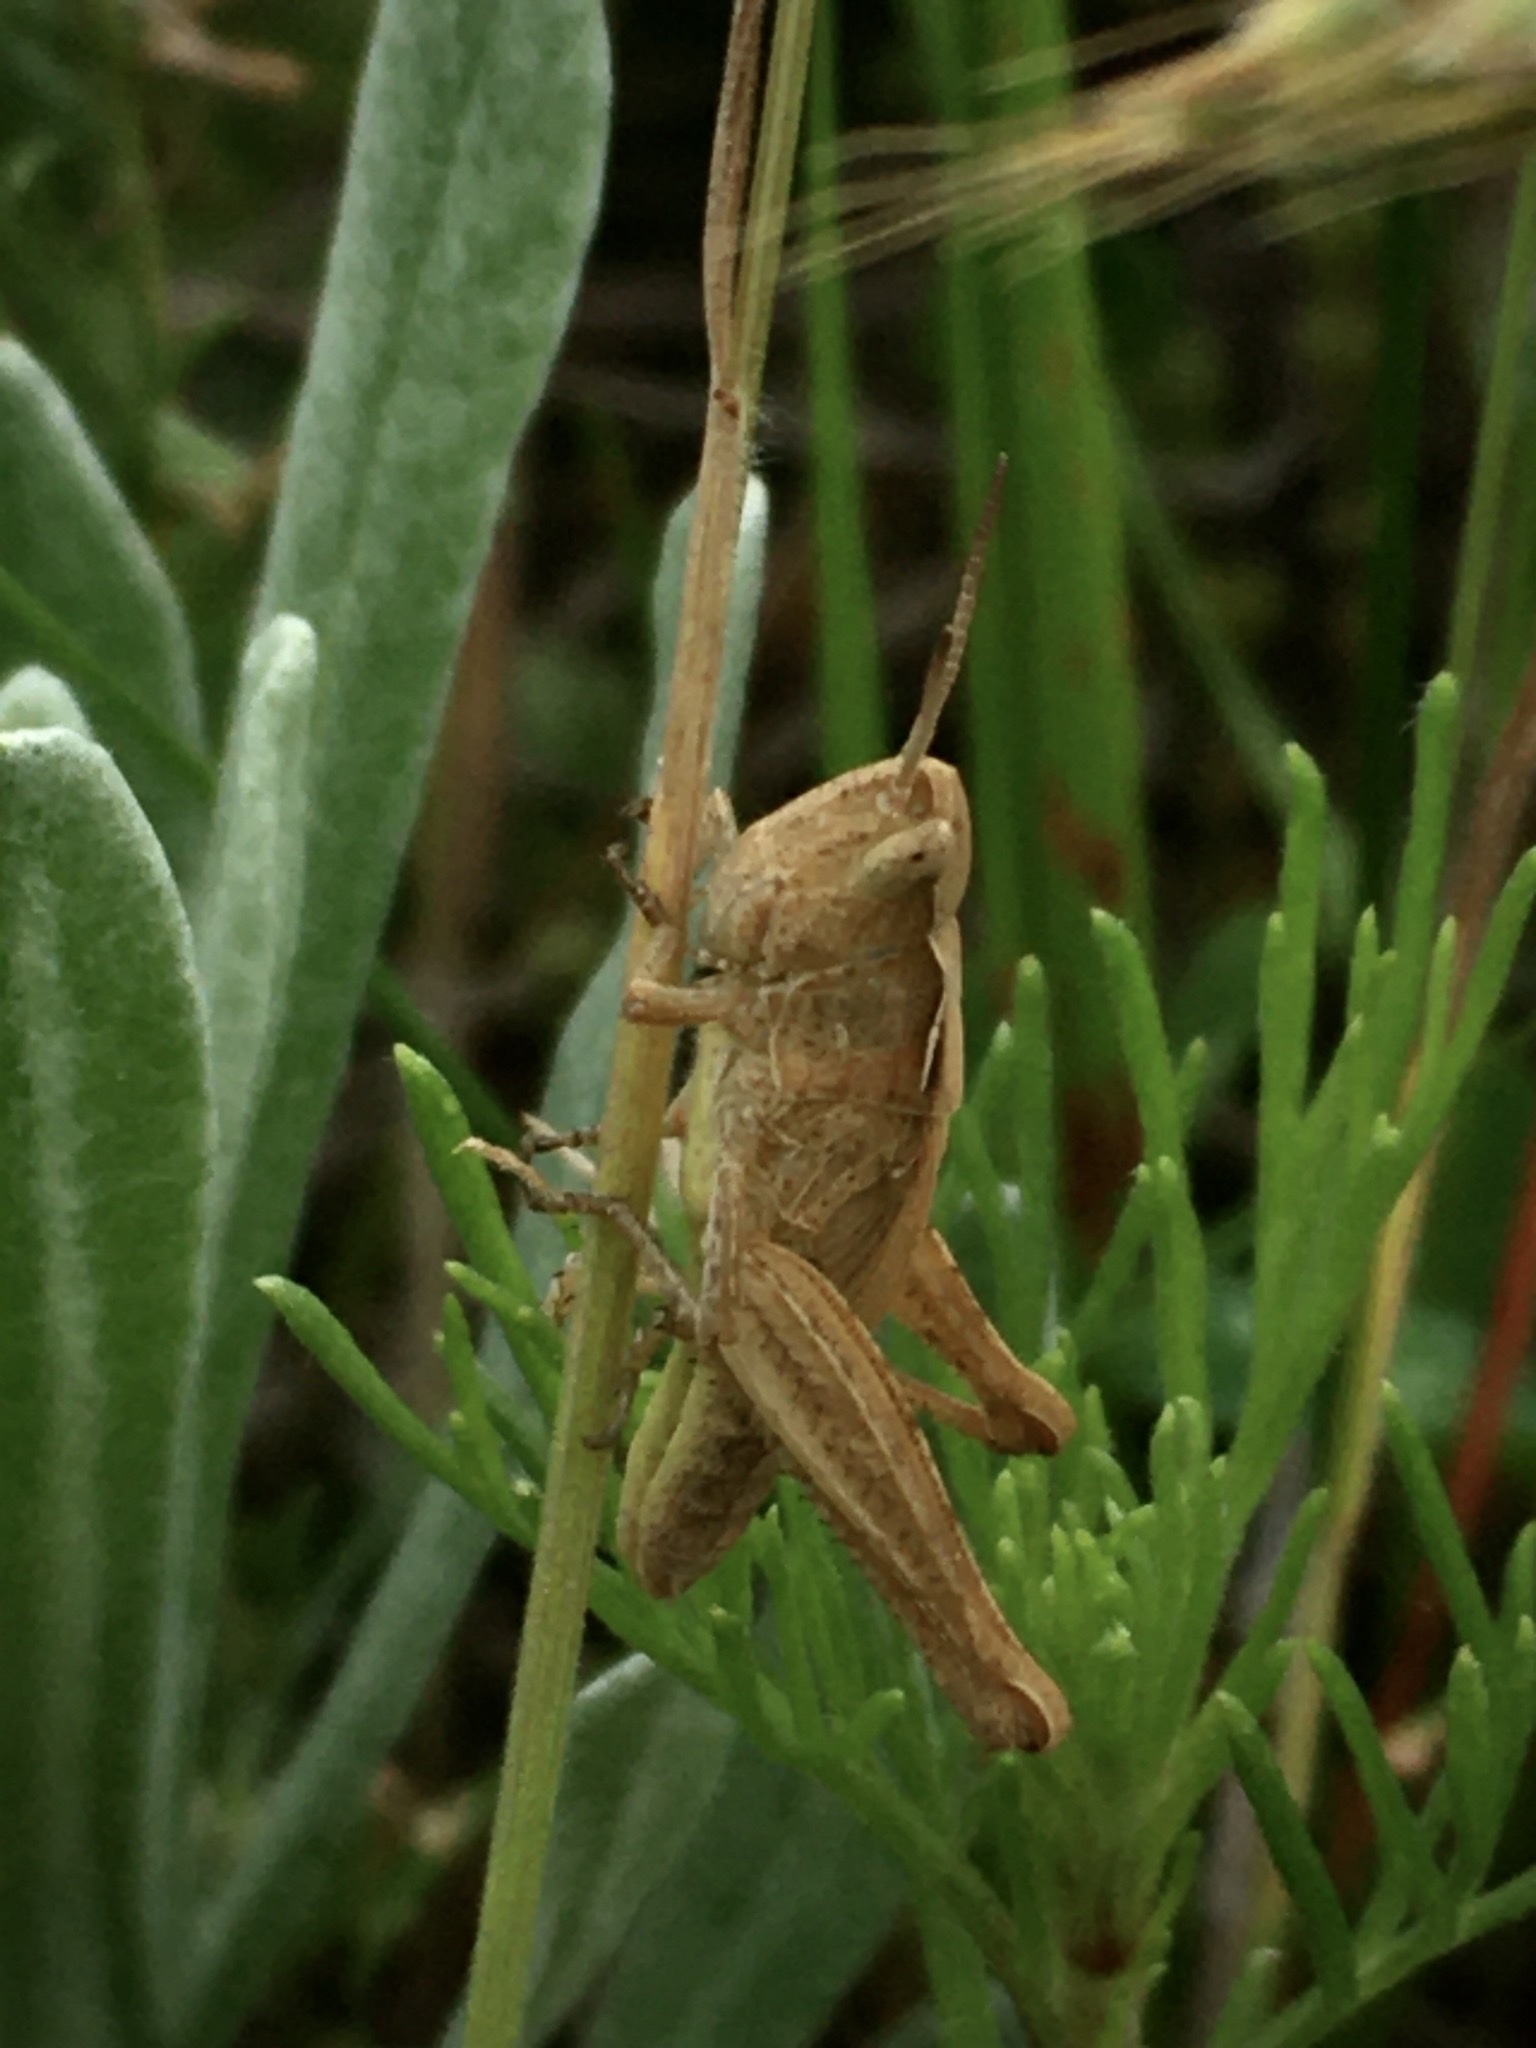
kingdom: Animalia
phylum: Arthropoda
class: Insecta
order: Orthoptera
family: Acrididae
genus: Glyptobothrus
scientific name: Glyptobothrus
